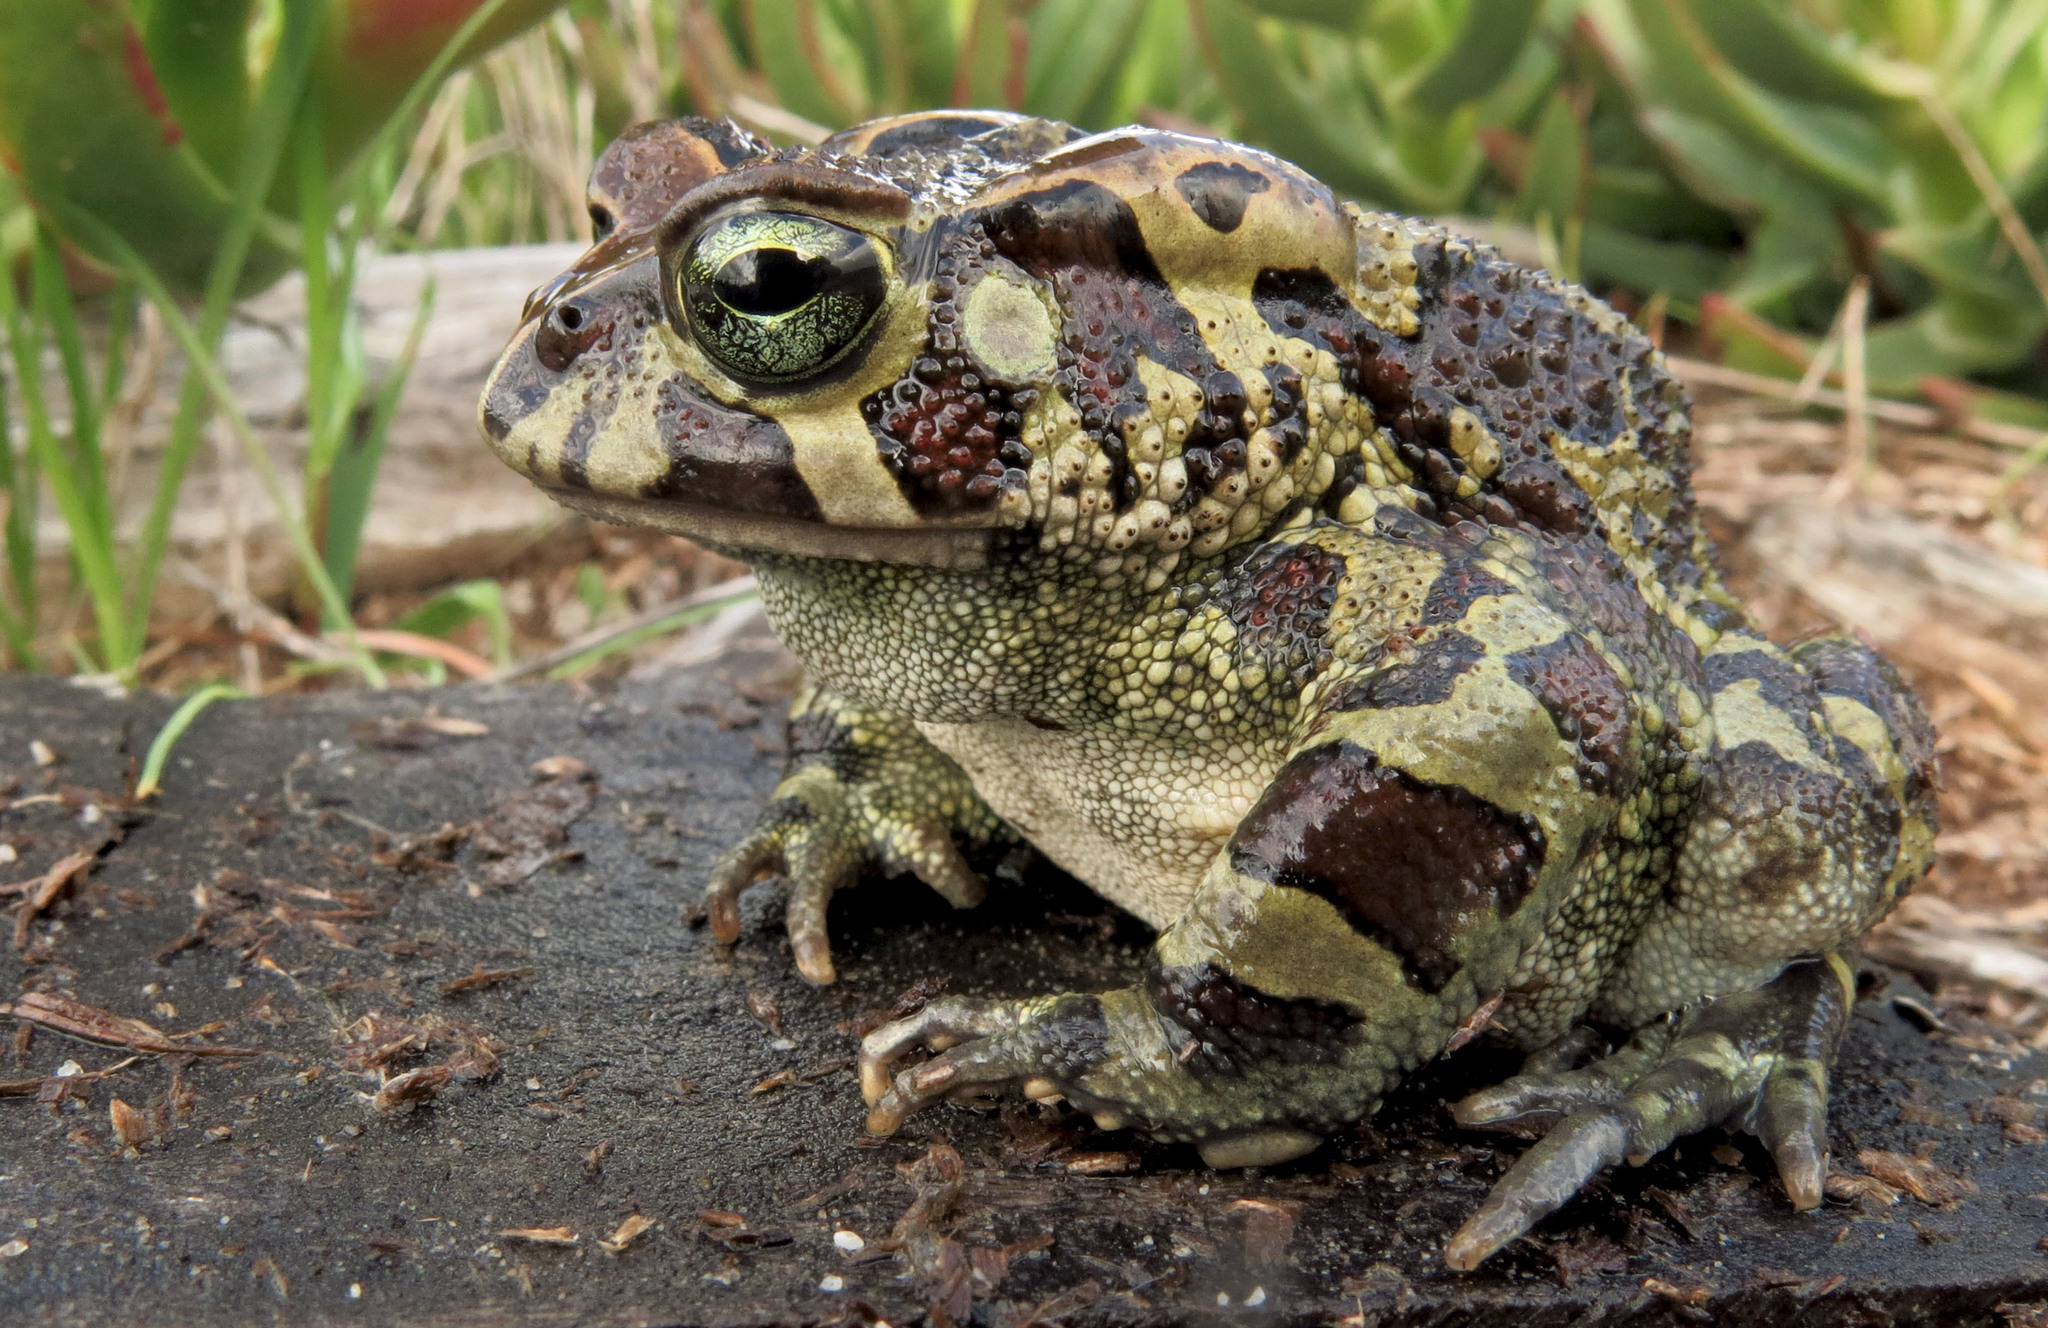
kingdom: Animalia
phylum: Chordata
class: Amphibia
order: Anura
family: Bufonidae
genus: Sclerophrys
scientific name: Sclerophrys pantherina
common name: Panther toad
